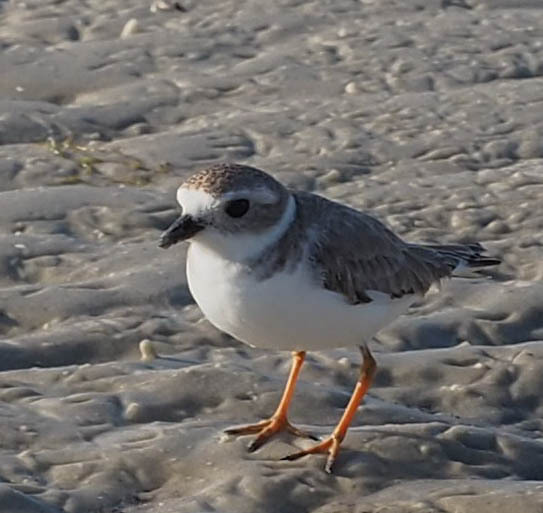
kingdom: Animalia
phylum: Chordata
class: Aves
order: Charadriiformes
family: Charadriidae
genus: Charadrius
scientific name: Charadrius melodus
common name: Piping plover
